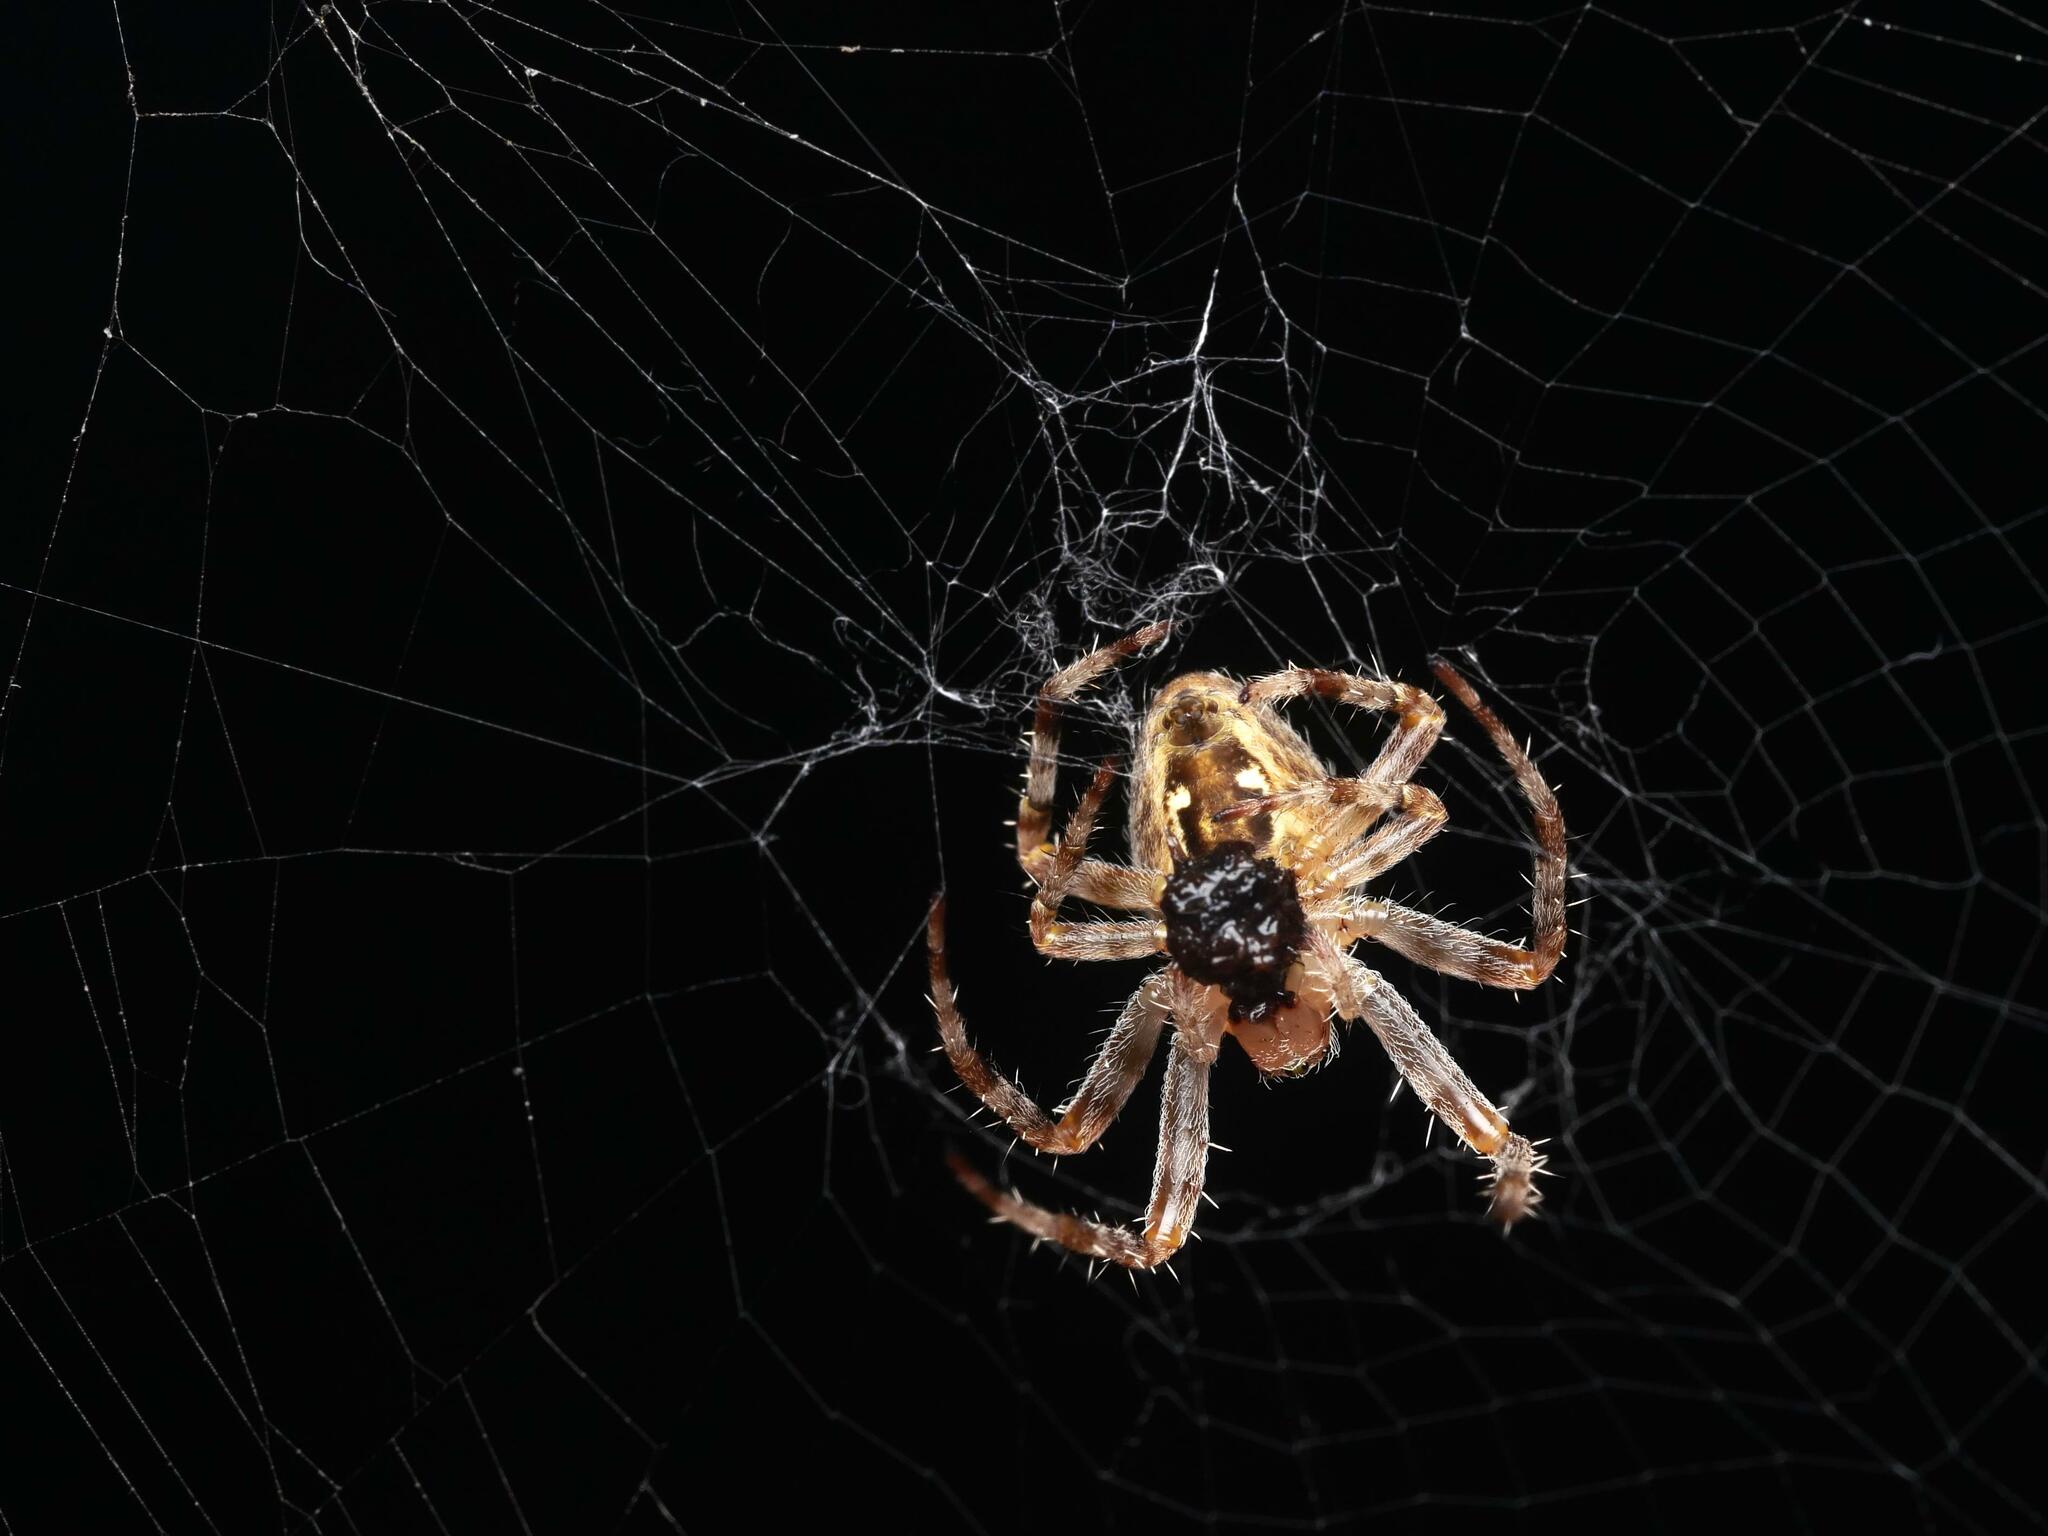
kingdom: Animalia
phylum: Arthropoda
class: Arachnida
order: Araneae
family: Araneidae
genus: Araneus
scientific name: Araneus diadematus
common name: Cross orbweaver
